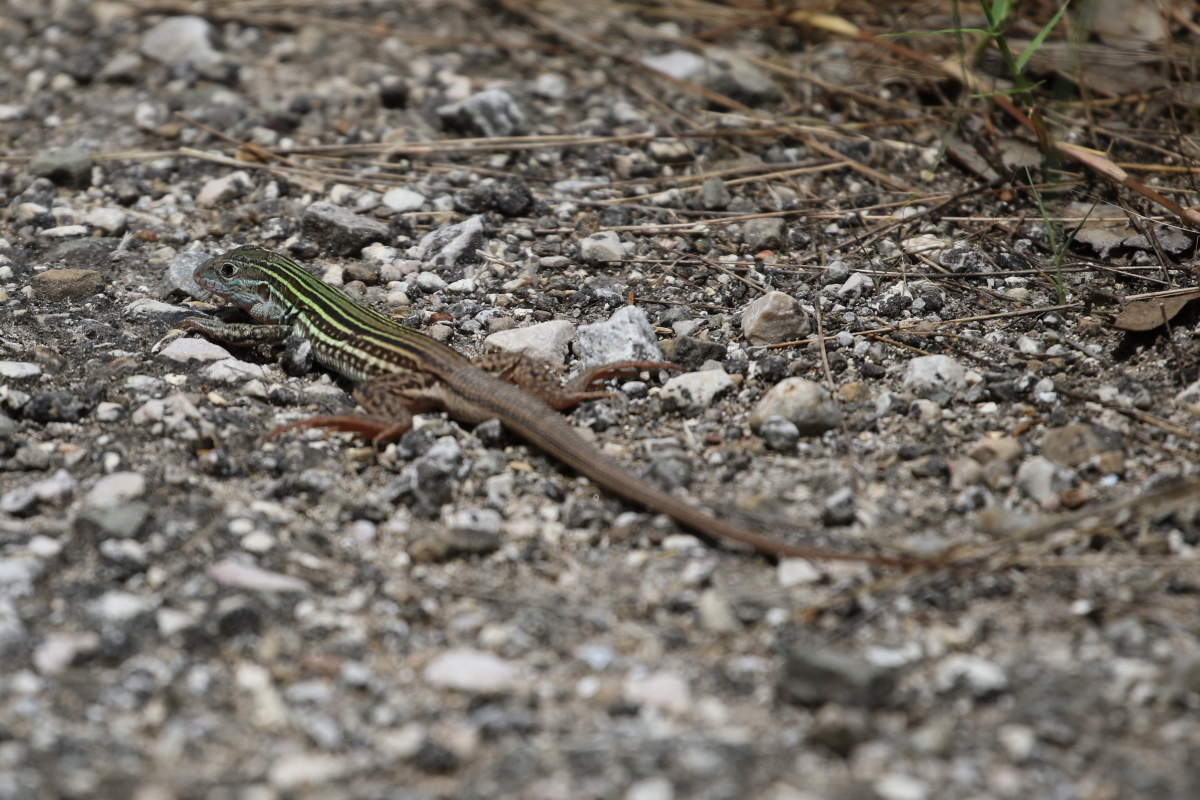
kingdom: Animalia
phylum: Chordata
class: Squamata
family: Teiidae
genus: Aspidoscelis
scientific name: Aspidoscelis gularis
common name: Eastern spotted whiptail
